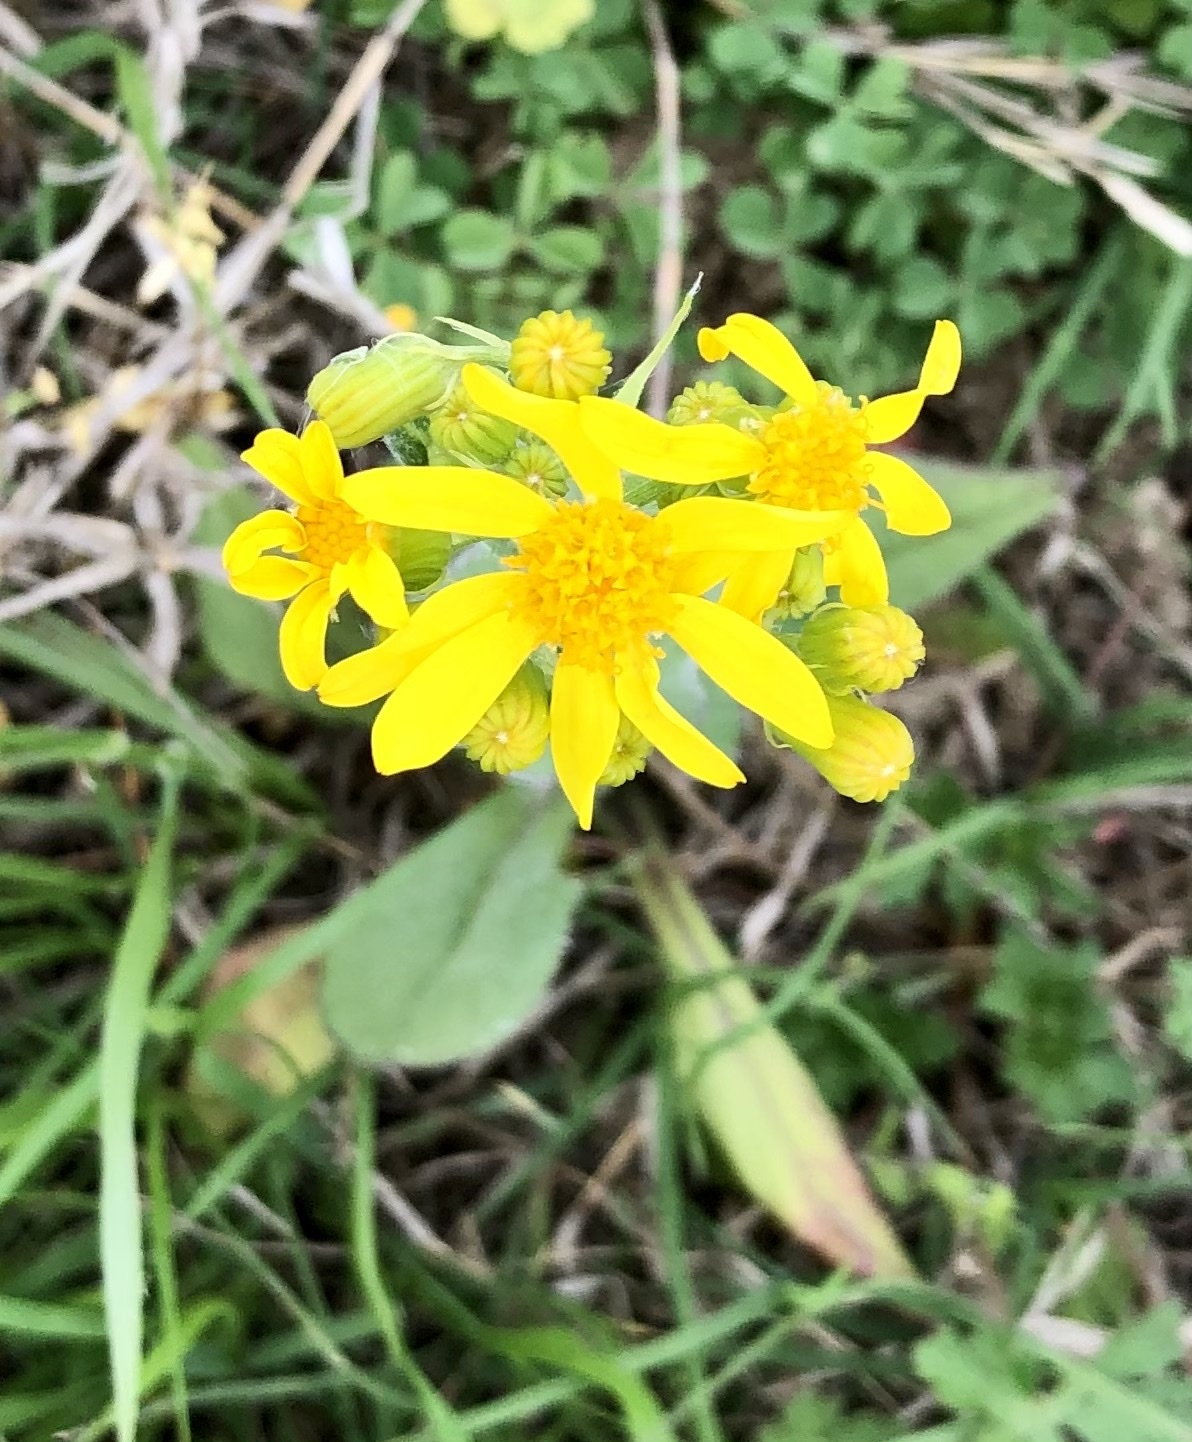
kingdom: Plantae
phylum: Tracheophyta
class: Magnoliopsida
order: Asterales
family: Asteraceae
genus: Senecio
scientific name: Senecio ampullaceus
